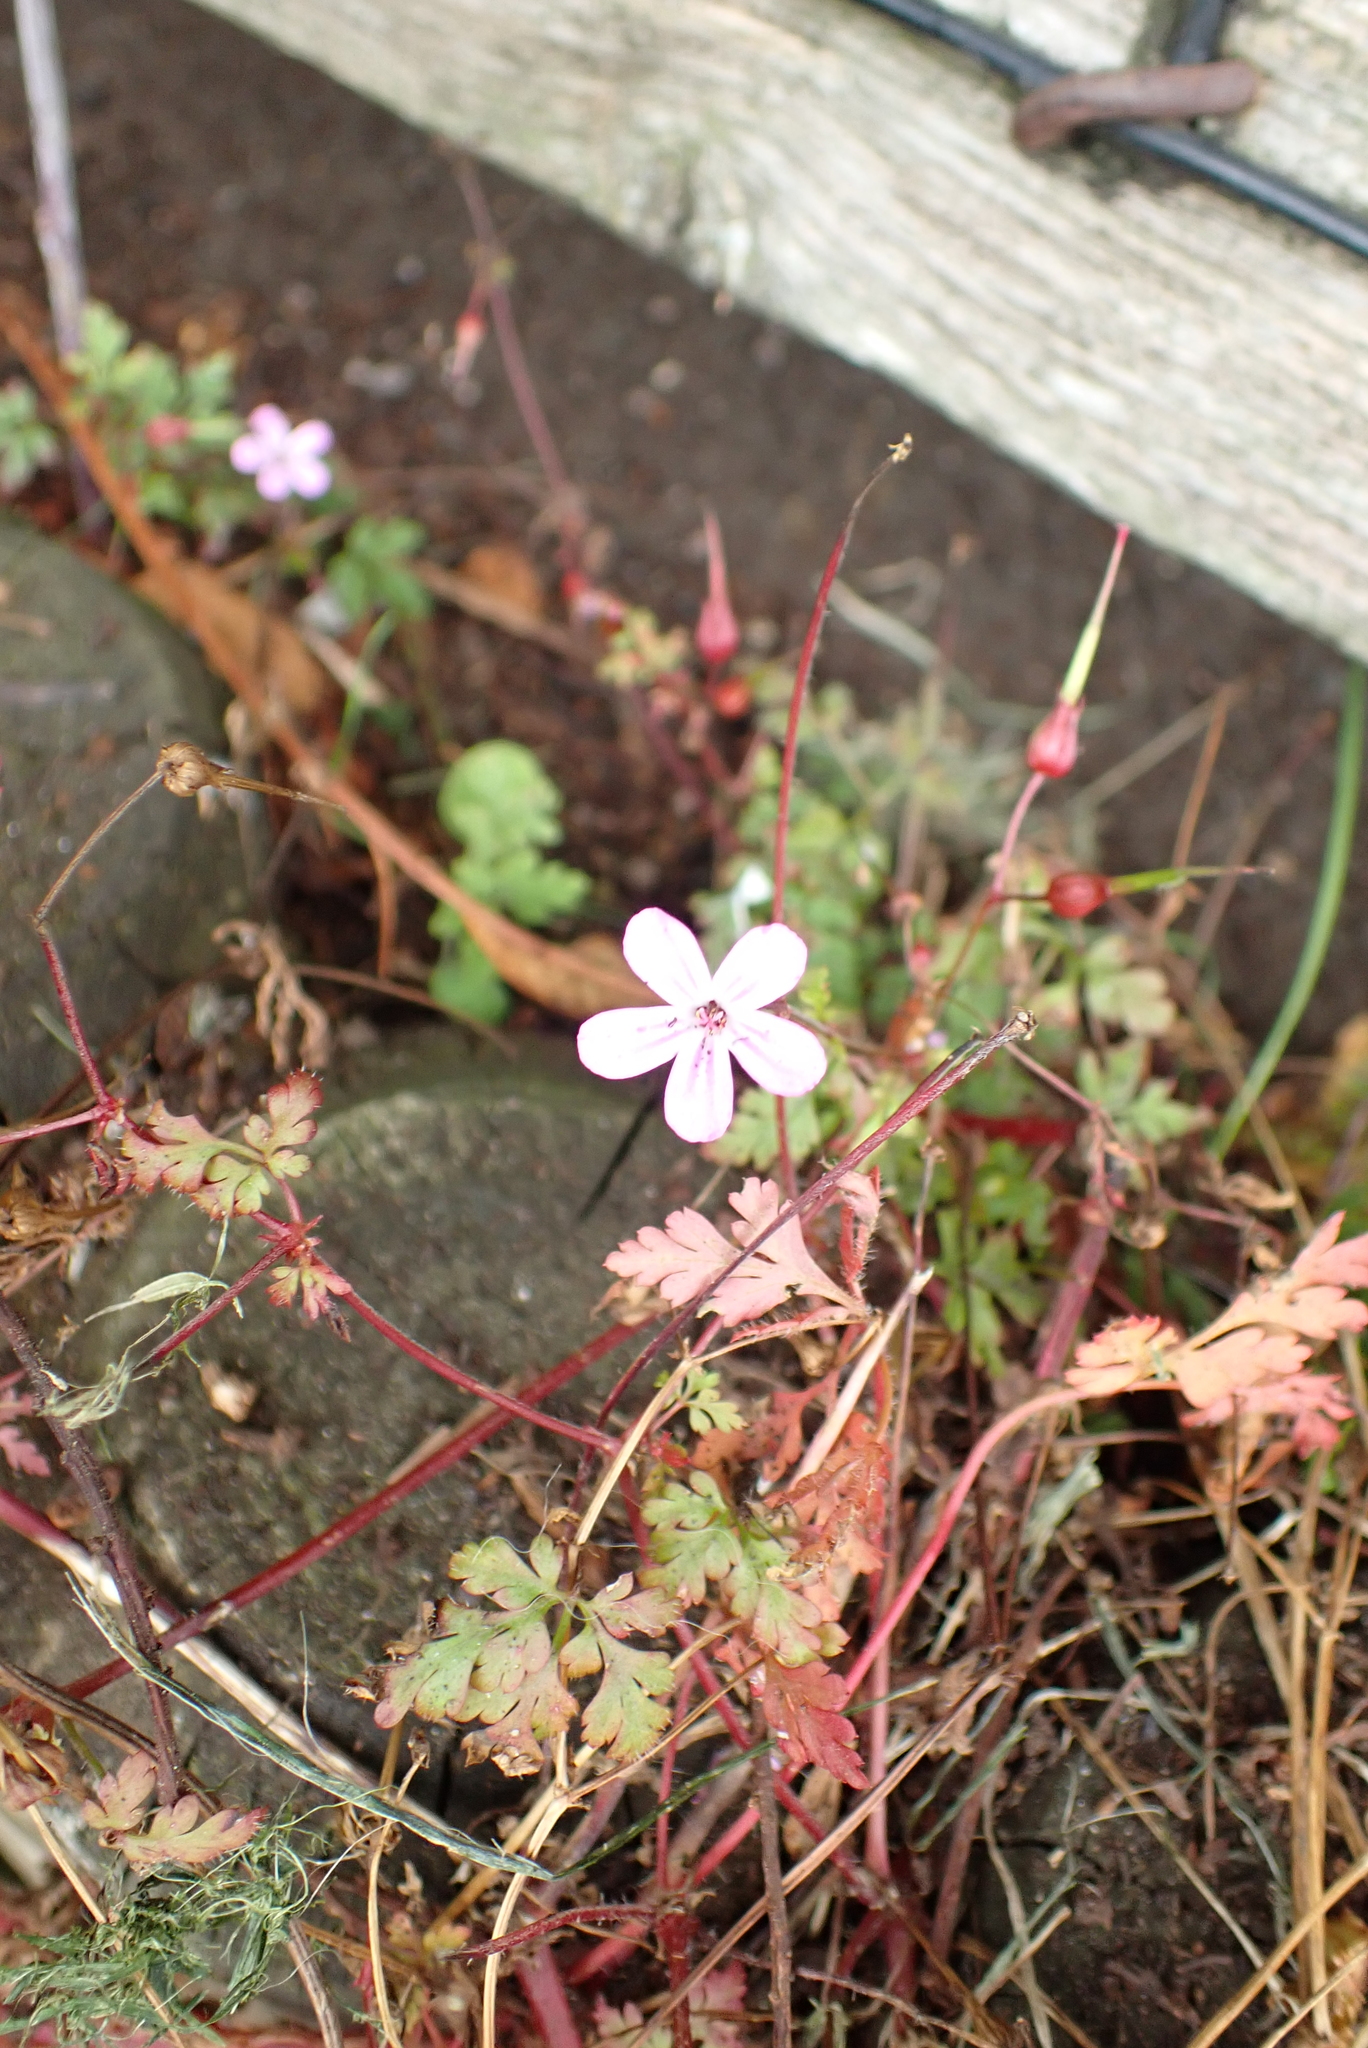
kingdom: Plantae
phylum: Tracheophyta
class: Magnoliopsida
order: Geraniales
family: Geraniaceae
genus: Geranium
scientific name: Geranium robertianum
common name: Herb-robert
